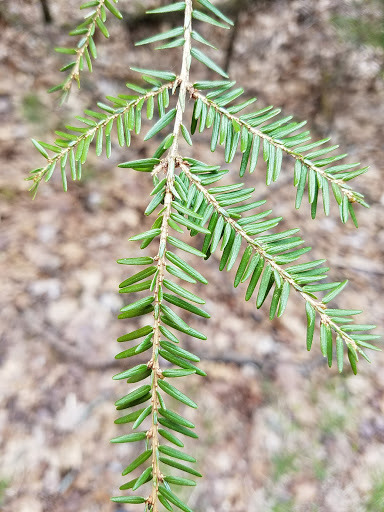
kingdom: Plantae
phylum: Tracheophyta
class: Pinopsida
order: Pinales
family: Pinaceae
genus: Tsuga
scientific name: Tsuga canadensis
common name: Eastern hemlock
